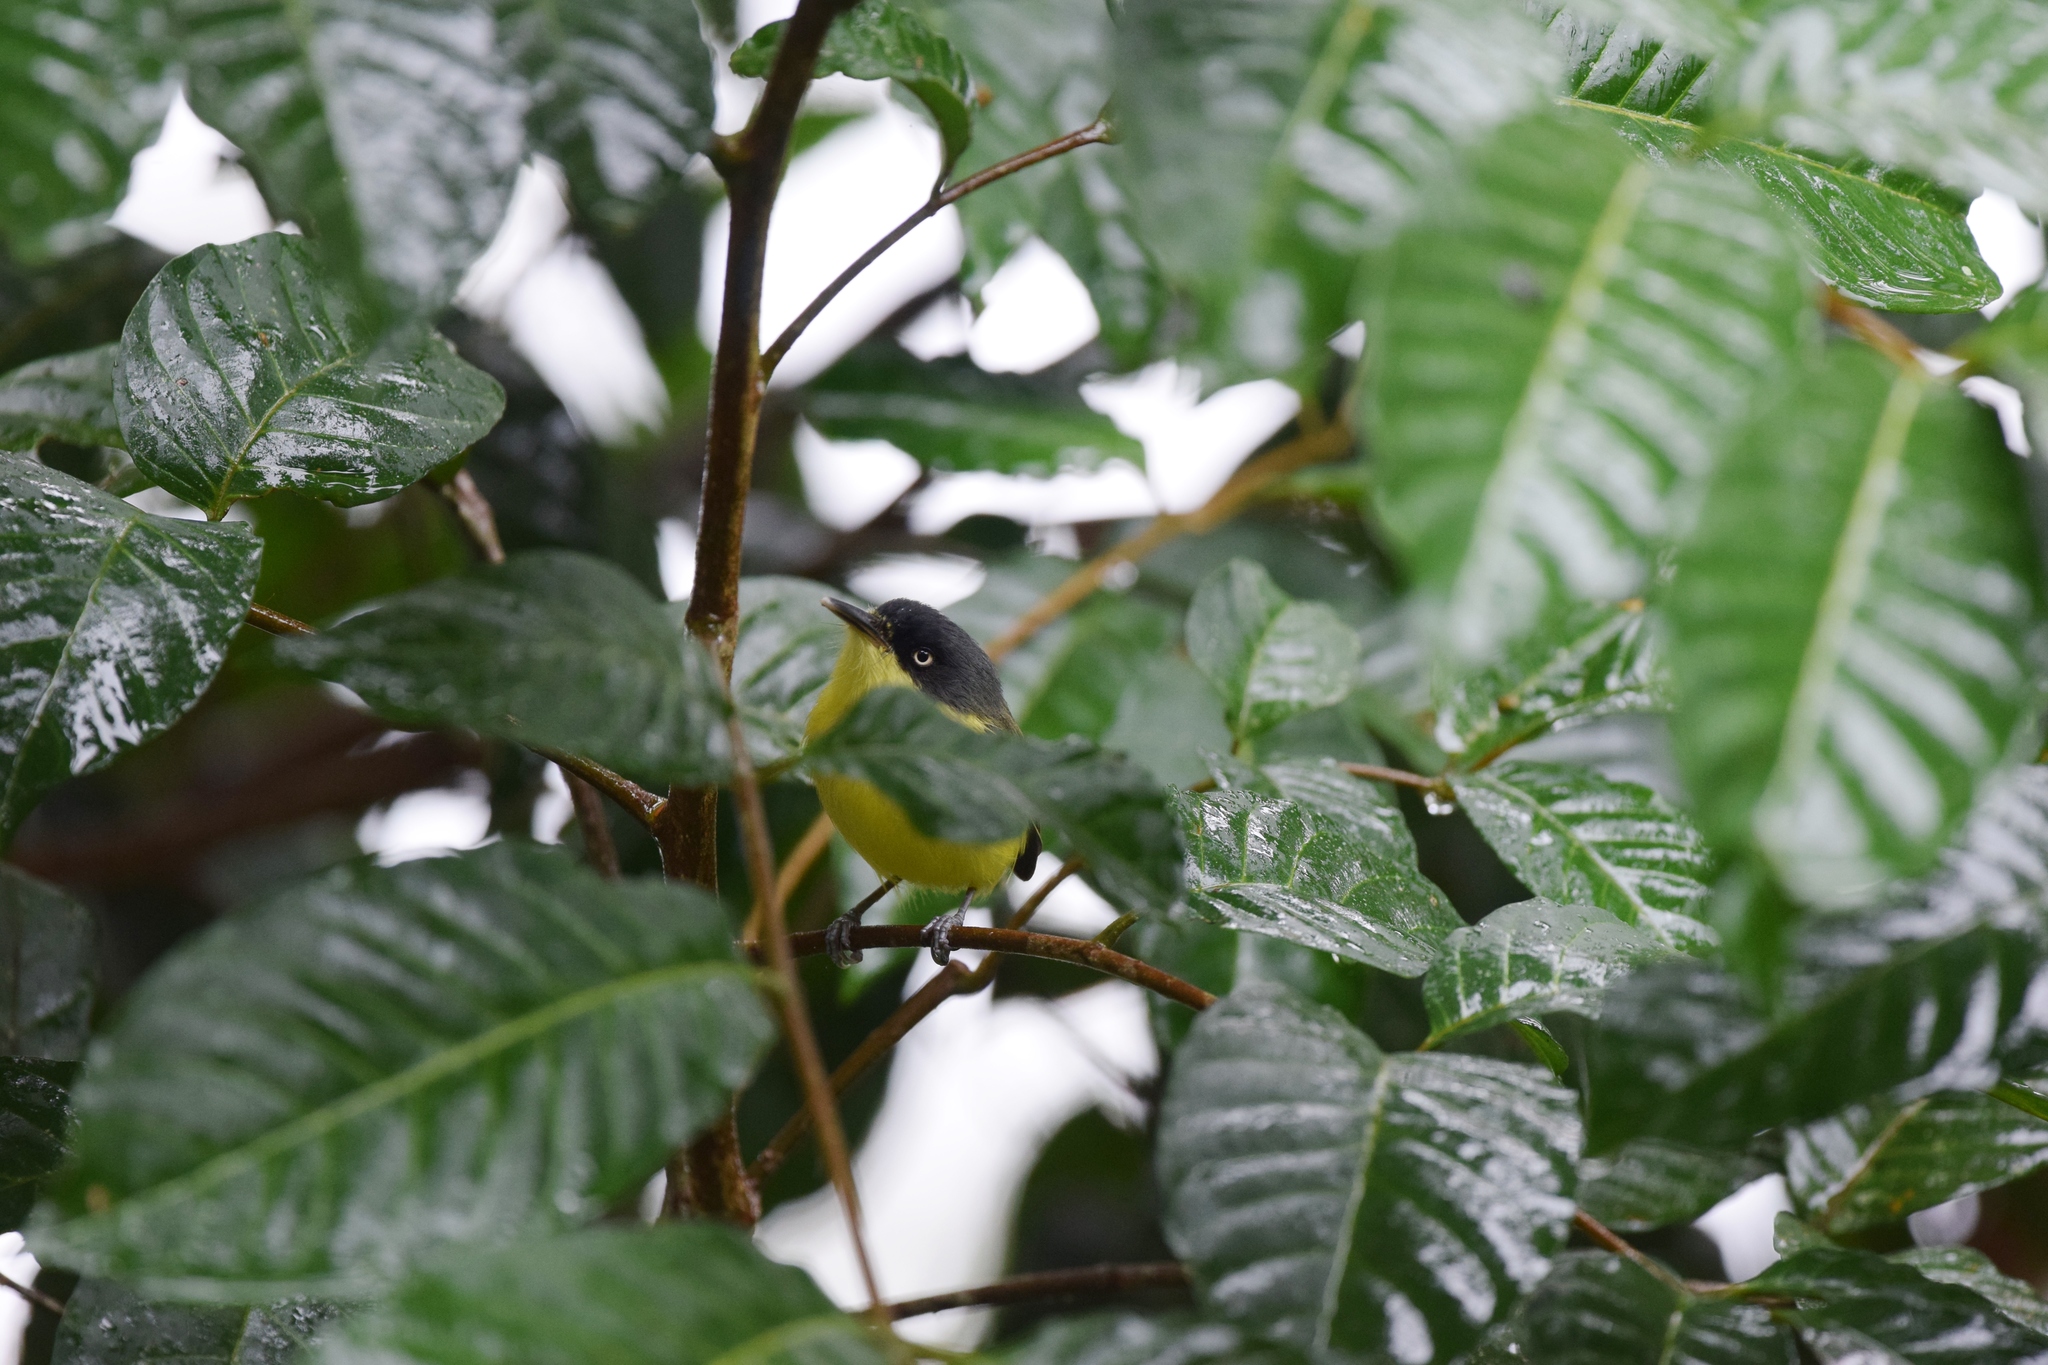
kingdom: Animalia
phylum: Chordata
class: Aves
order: Passeriformes
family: Tyrannidae
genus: Todirostrum
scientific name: Todirostrum cinereum
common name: Common tody-flycatcher
